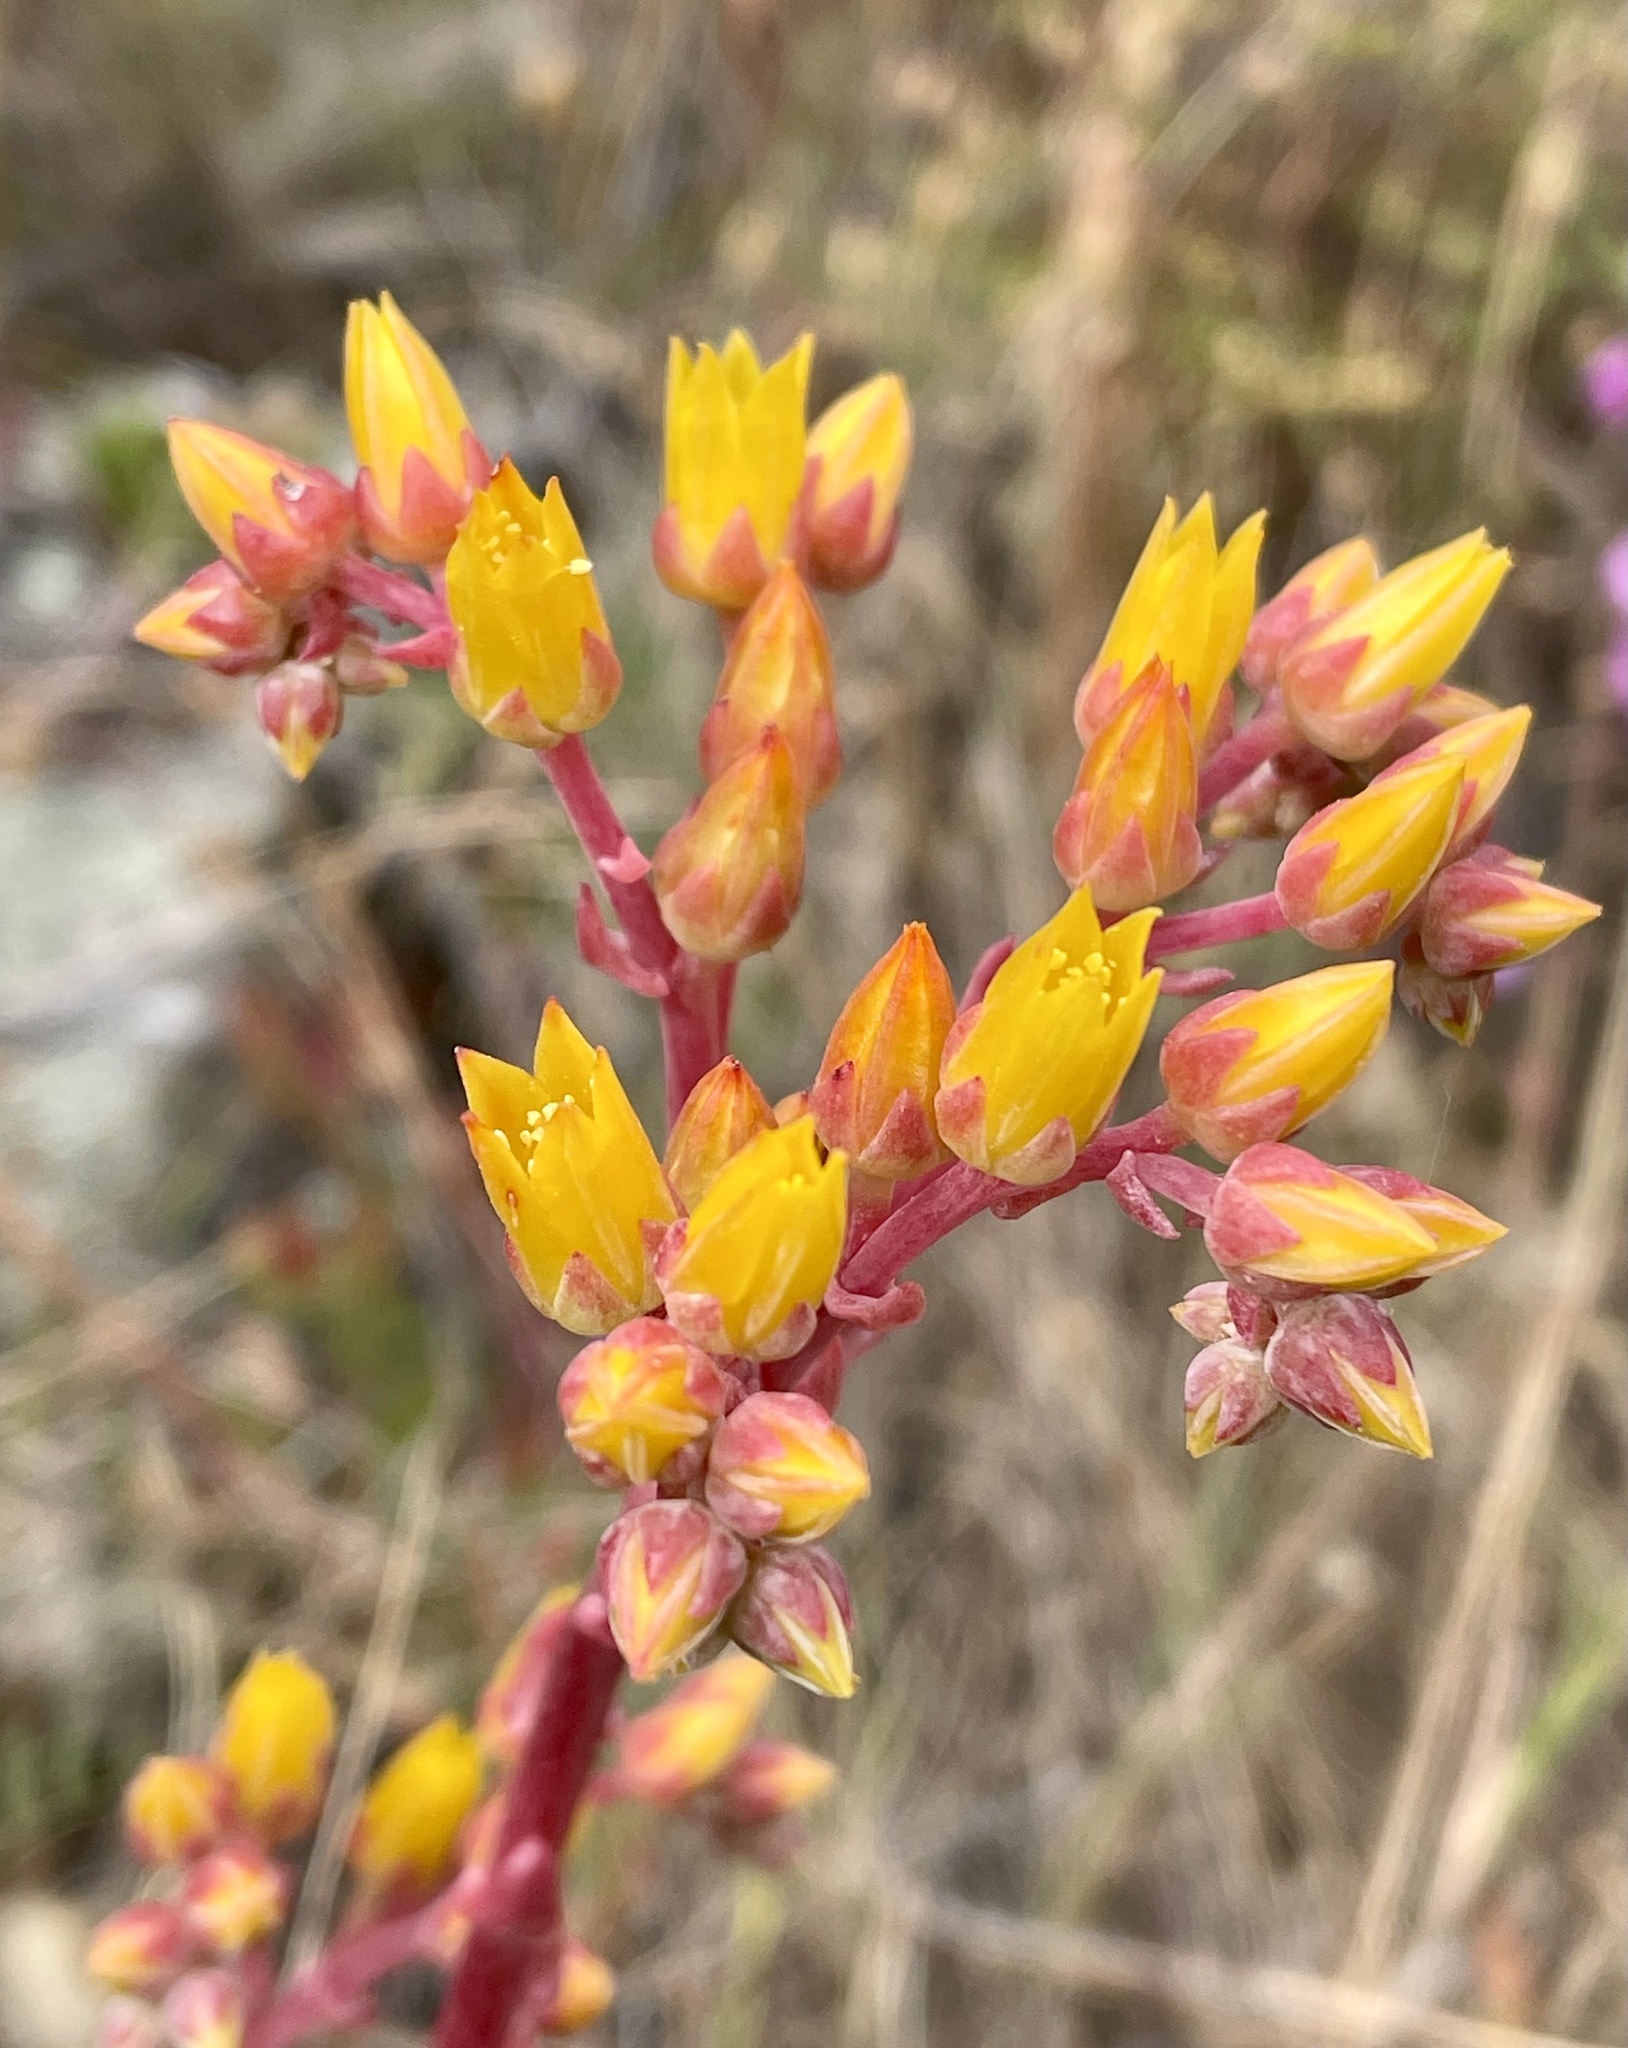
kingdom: Plantae
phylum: Tracheophyta
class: Magnoliopsida
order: Saxifragales
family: Crassulaceae
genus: Dudleya
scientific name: Dudleya caespitosa
